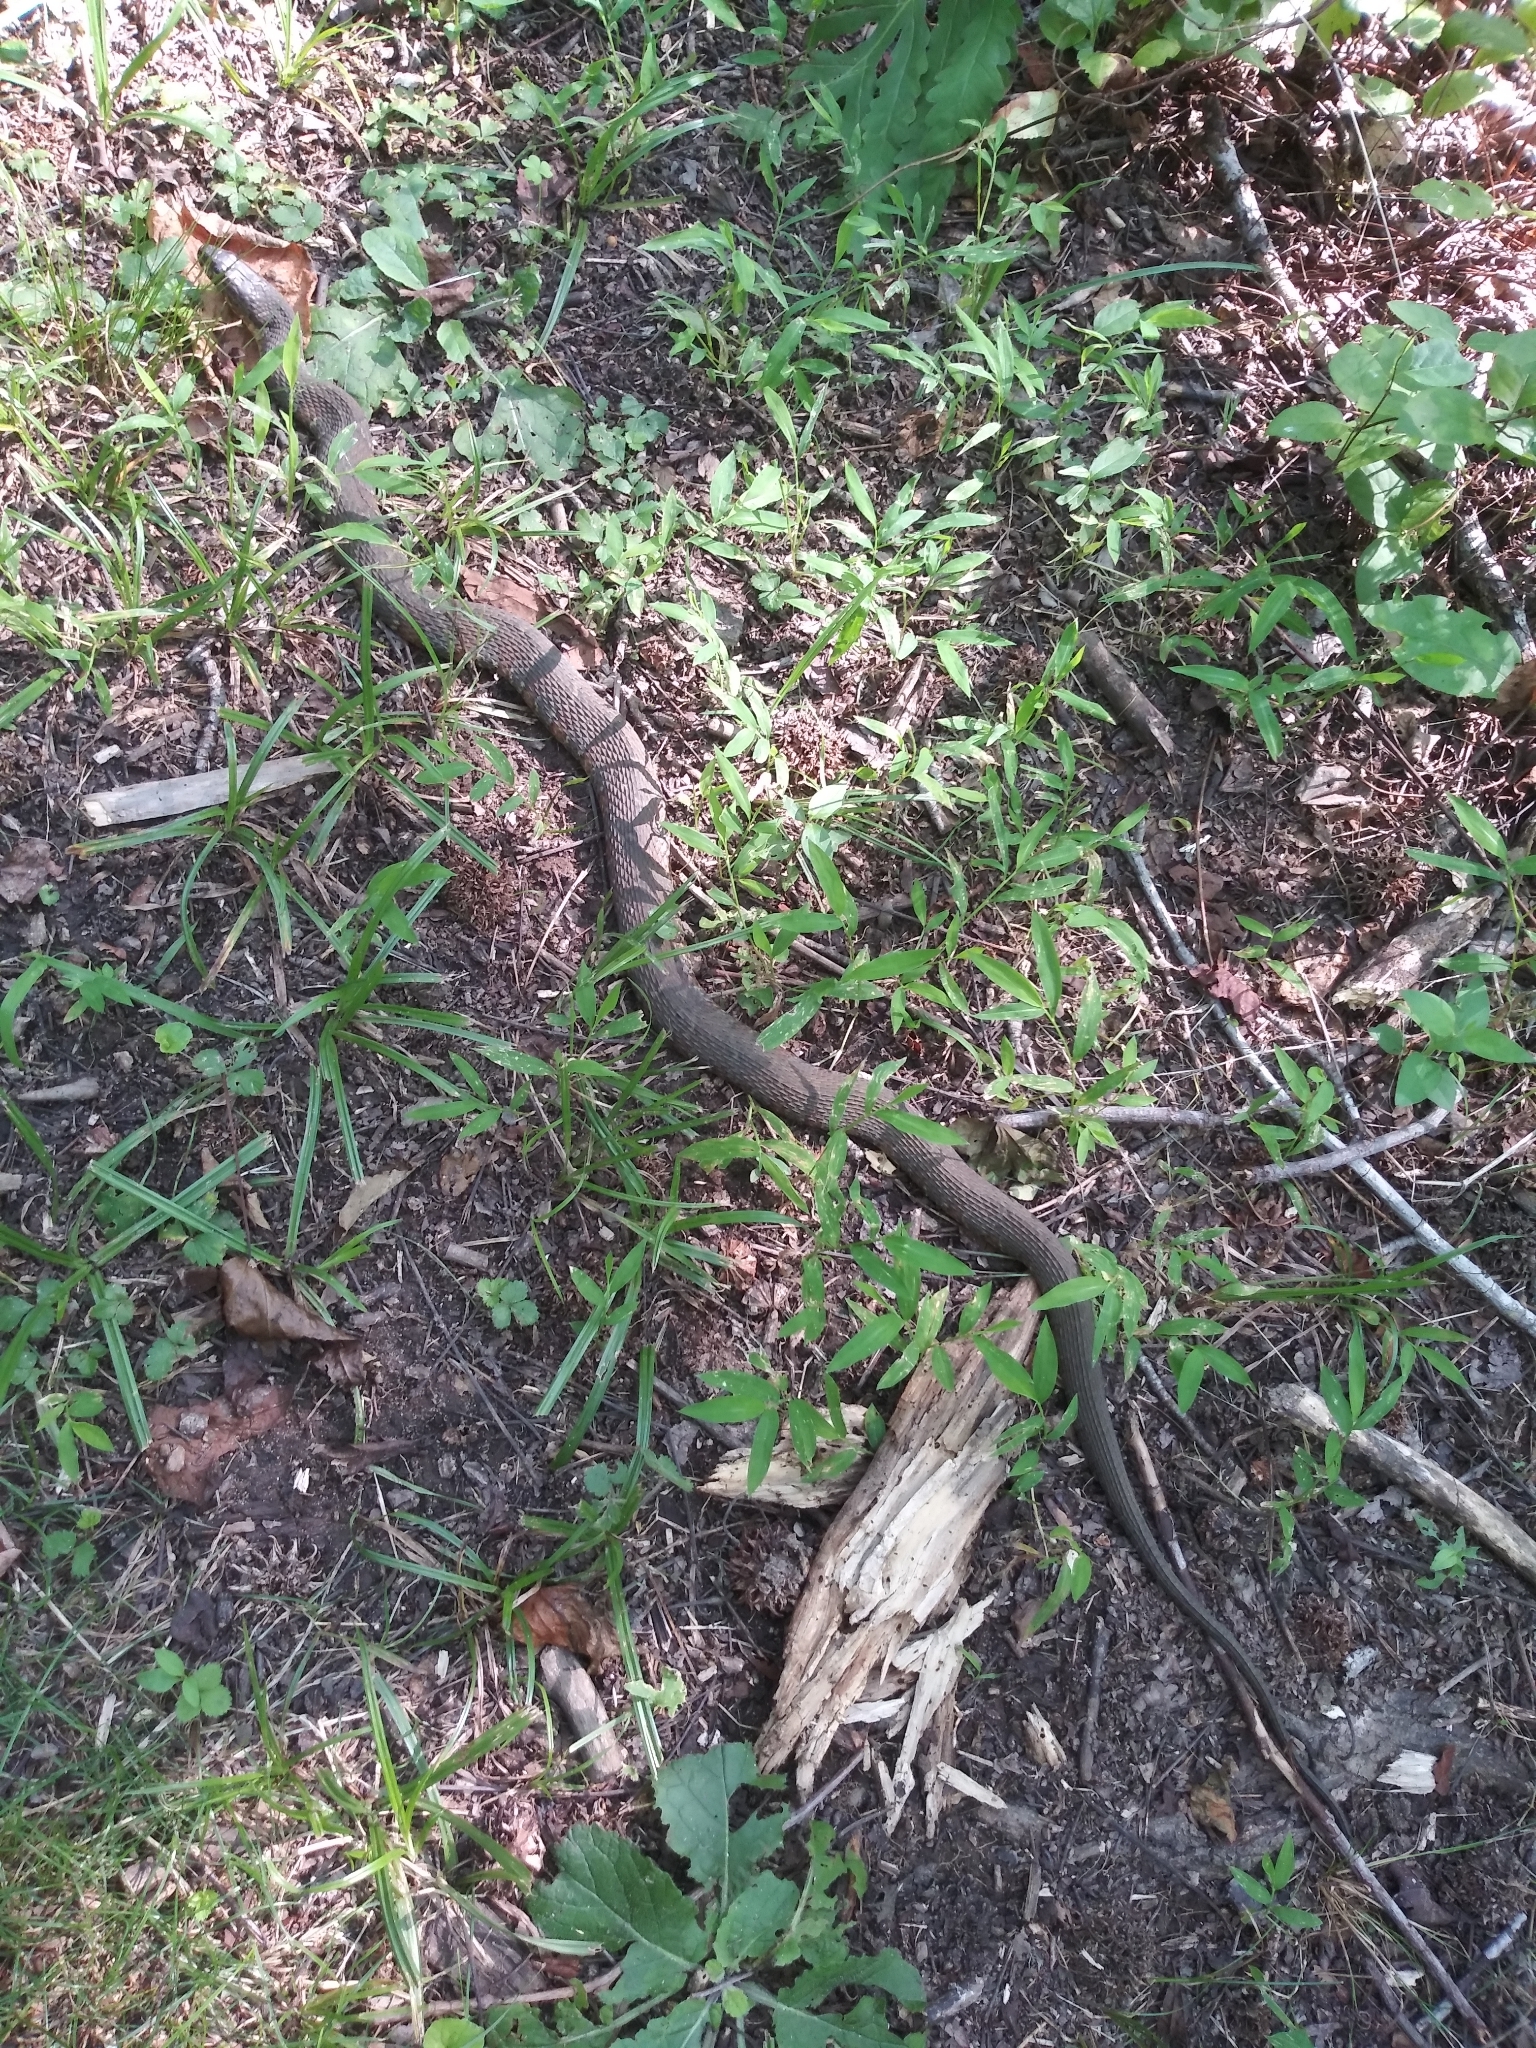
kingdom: Animalia
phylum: Chordata
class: Squamata
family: Colubridae
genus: Nerodia
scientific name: Nerodia sipedon
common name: Northern water snake
